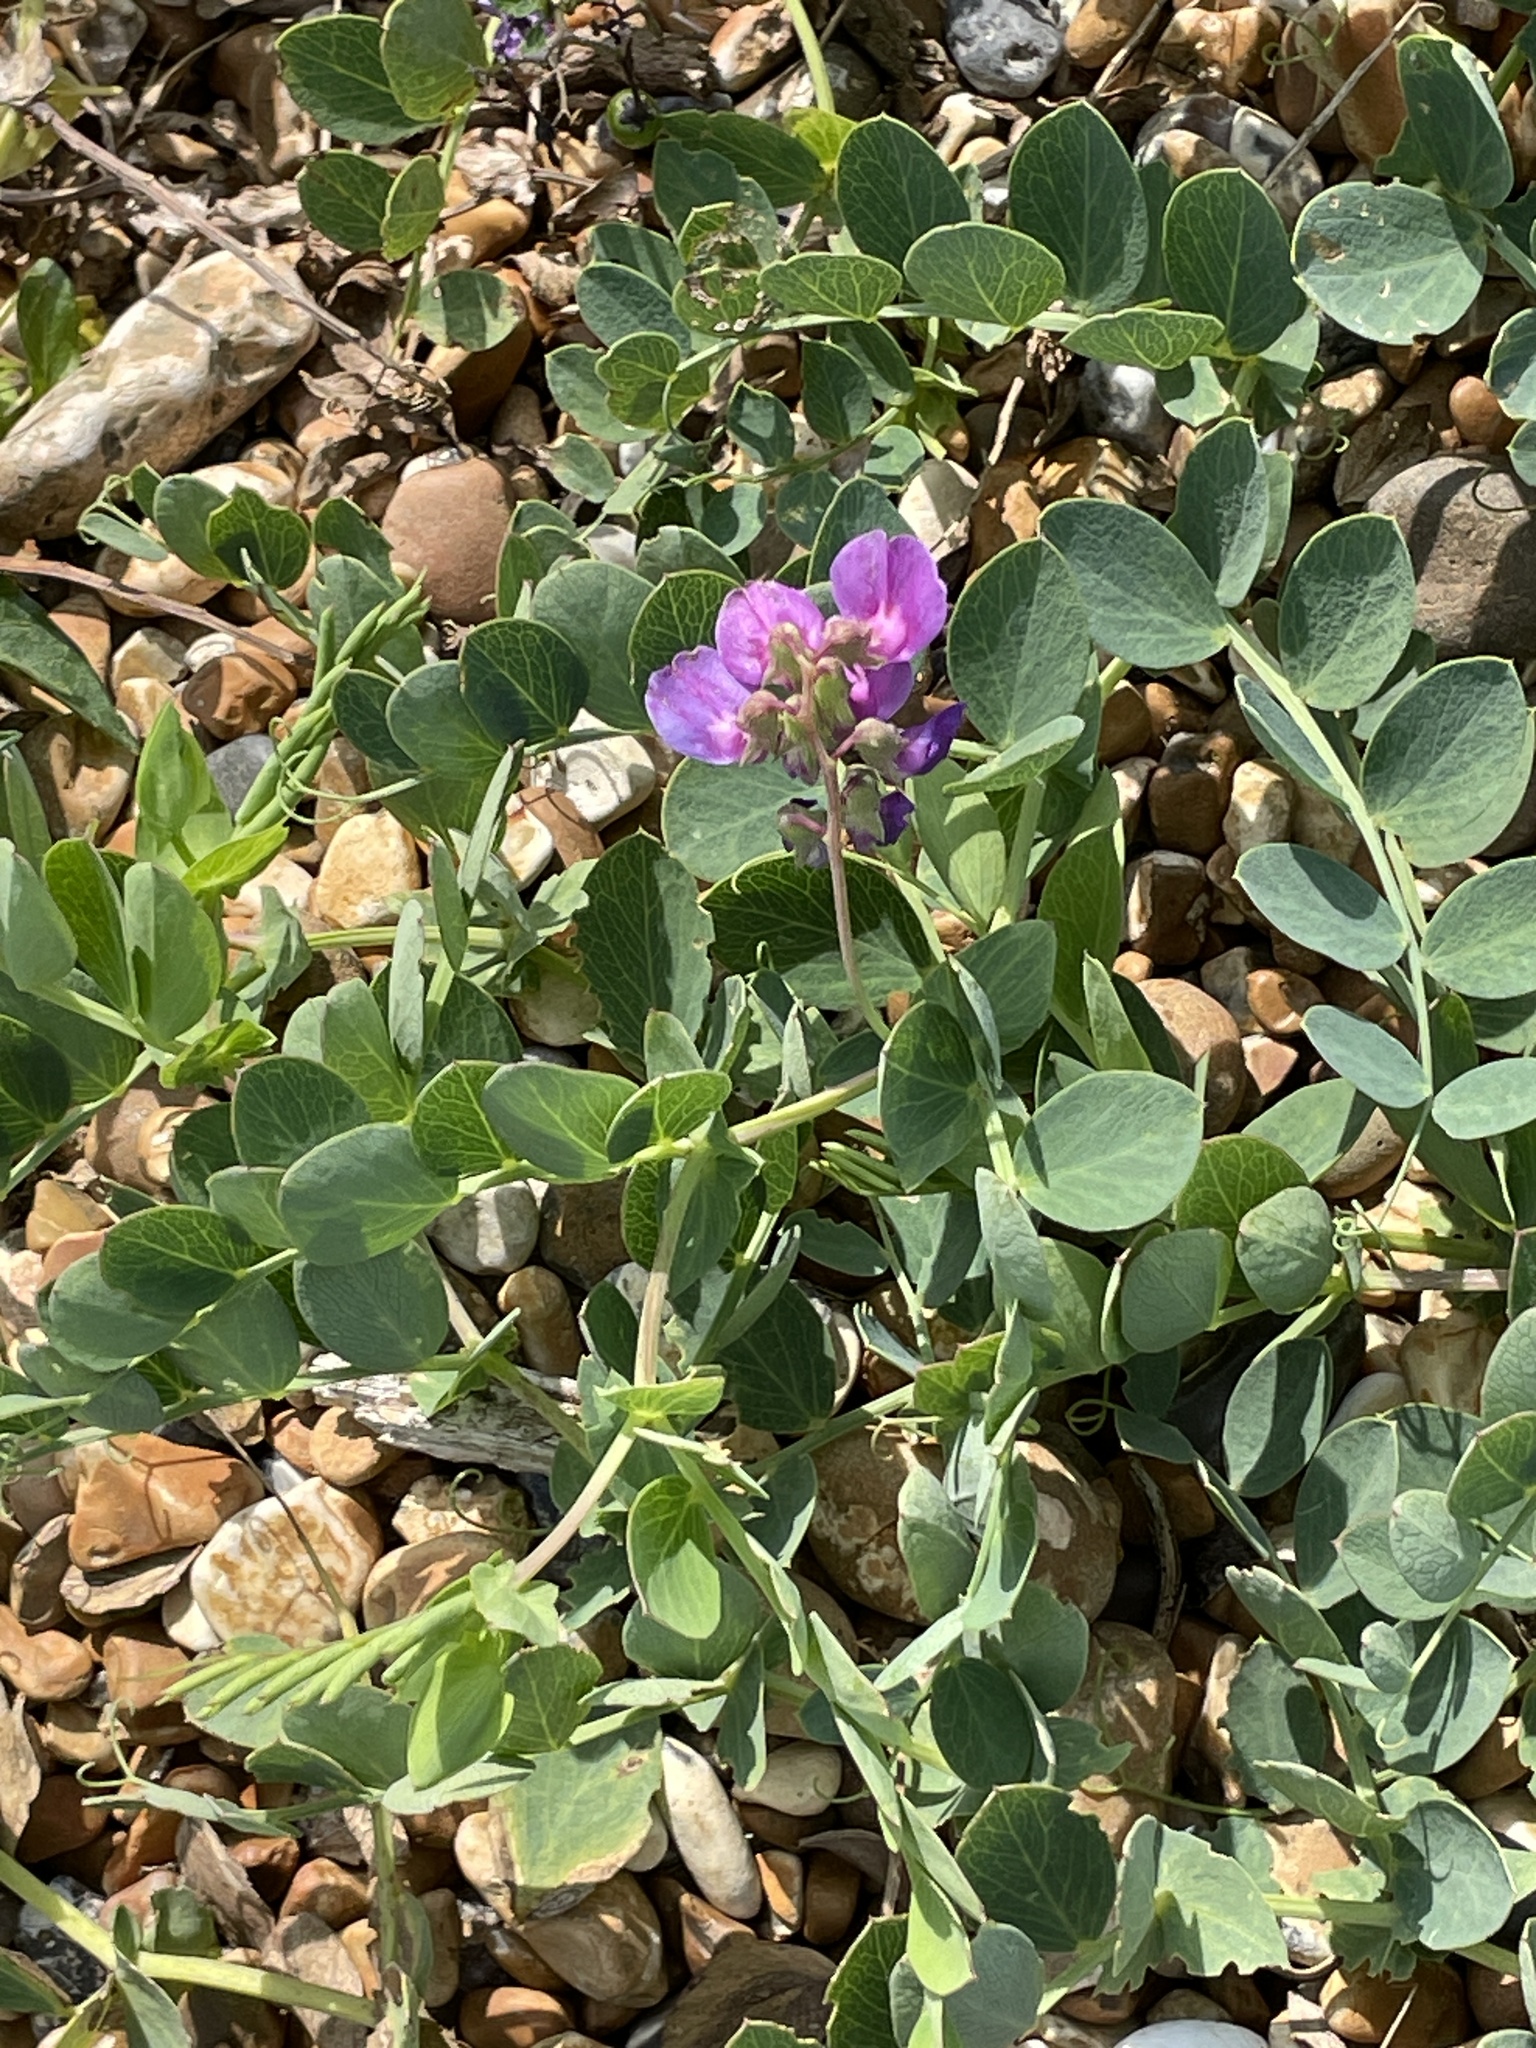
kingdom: Plantae
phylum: Tracheophyta
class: Magnoliopsida
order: Fabales
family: Fabaceae
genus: Lathyrus
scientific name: Lathyrus japonicus
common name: Sea pea
